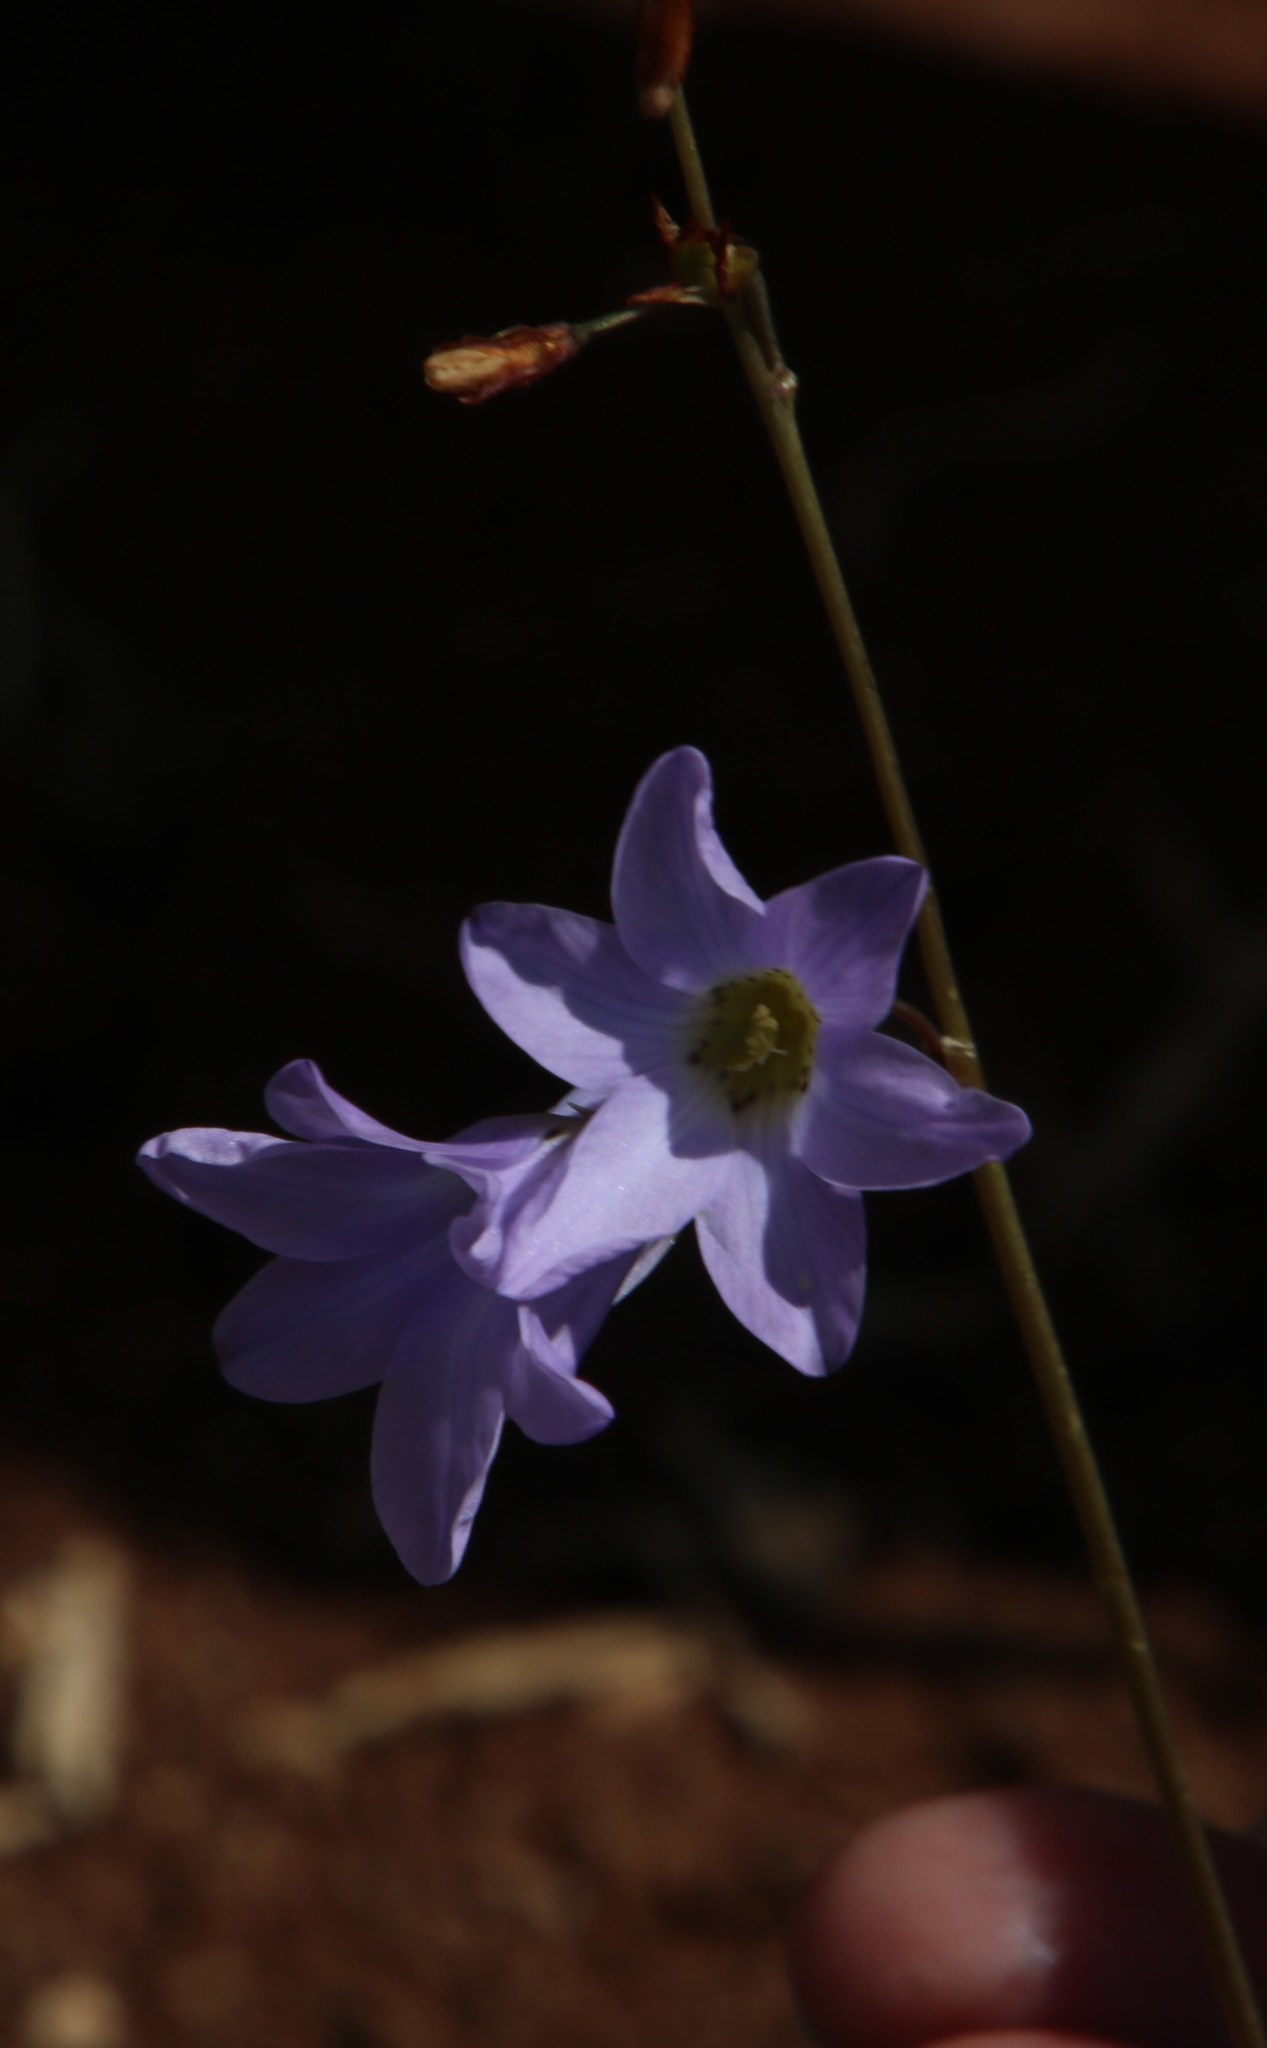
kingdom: Plantae
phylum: Tracheophyta
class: Liliopsida
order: Asparagales
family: Iridaceae
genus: Ixia
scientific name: Ixia rapunculoides
